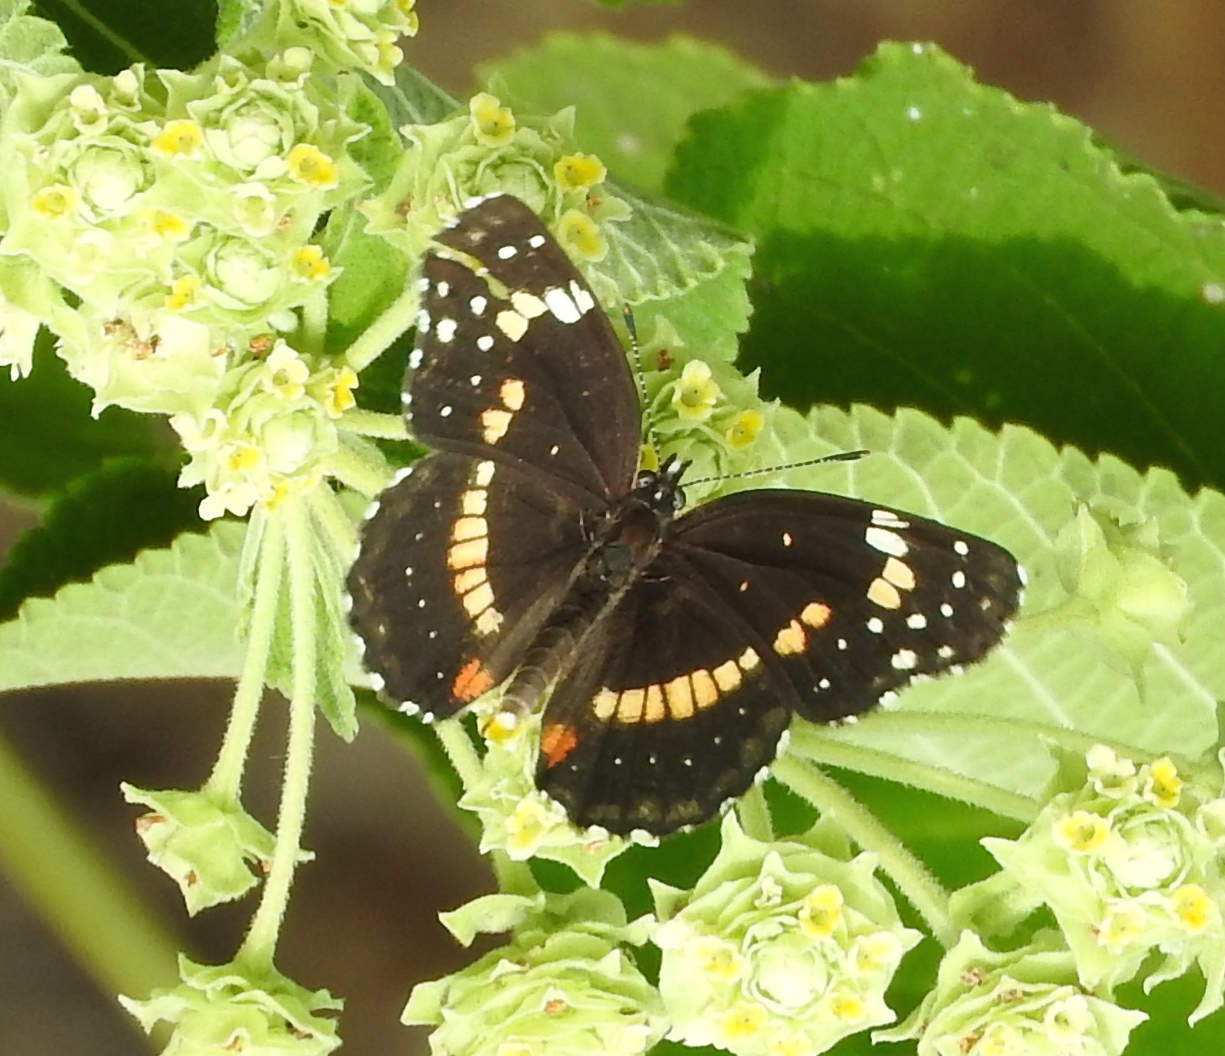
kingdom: Animalia
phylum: Arthropoda
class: Insecta
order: Lepidoptera
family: Nymphalidae
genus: Chlosyne
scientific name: Chlosyne lacinia
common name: Bordered patch
